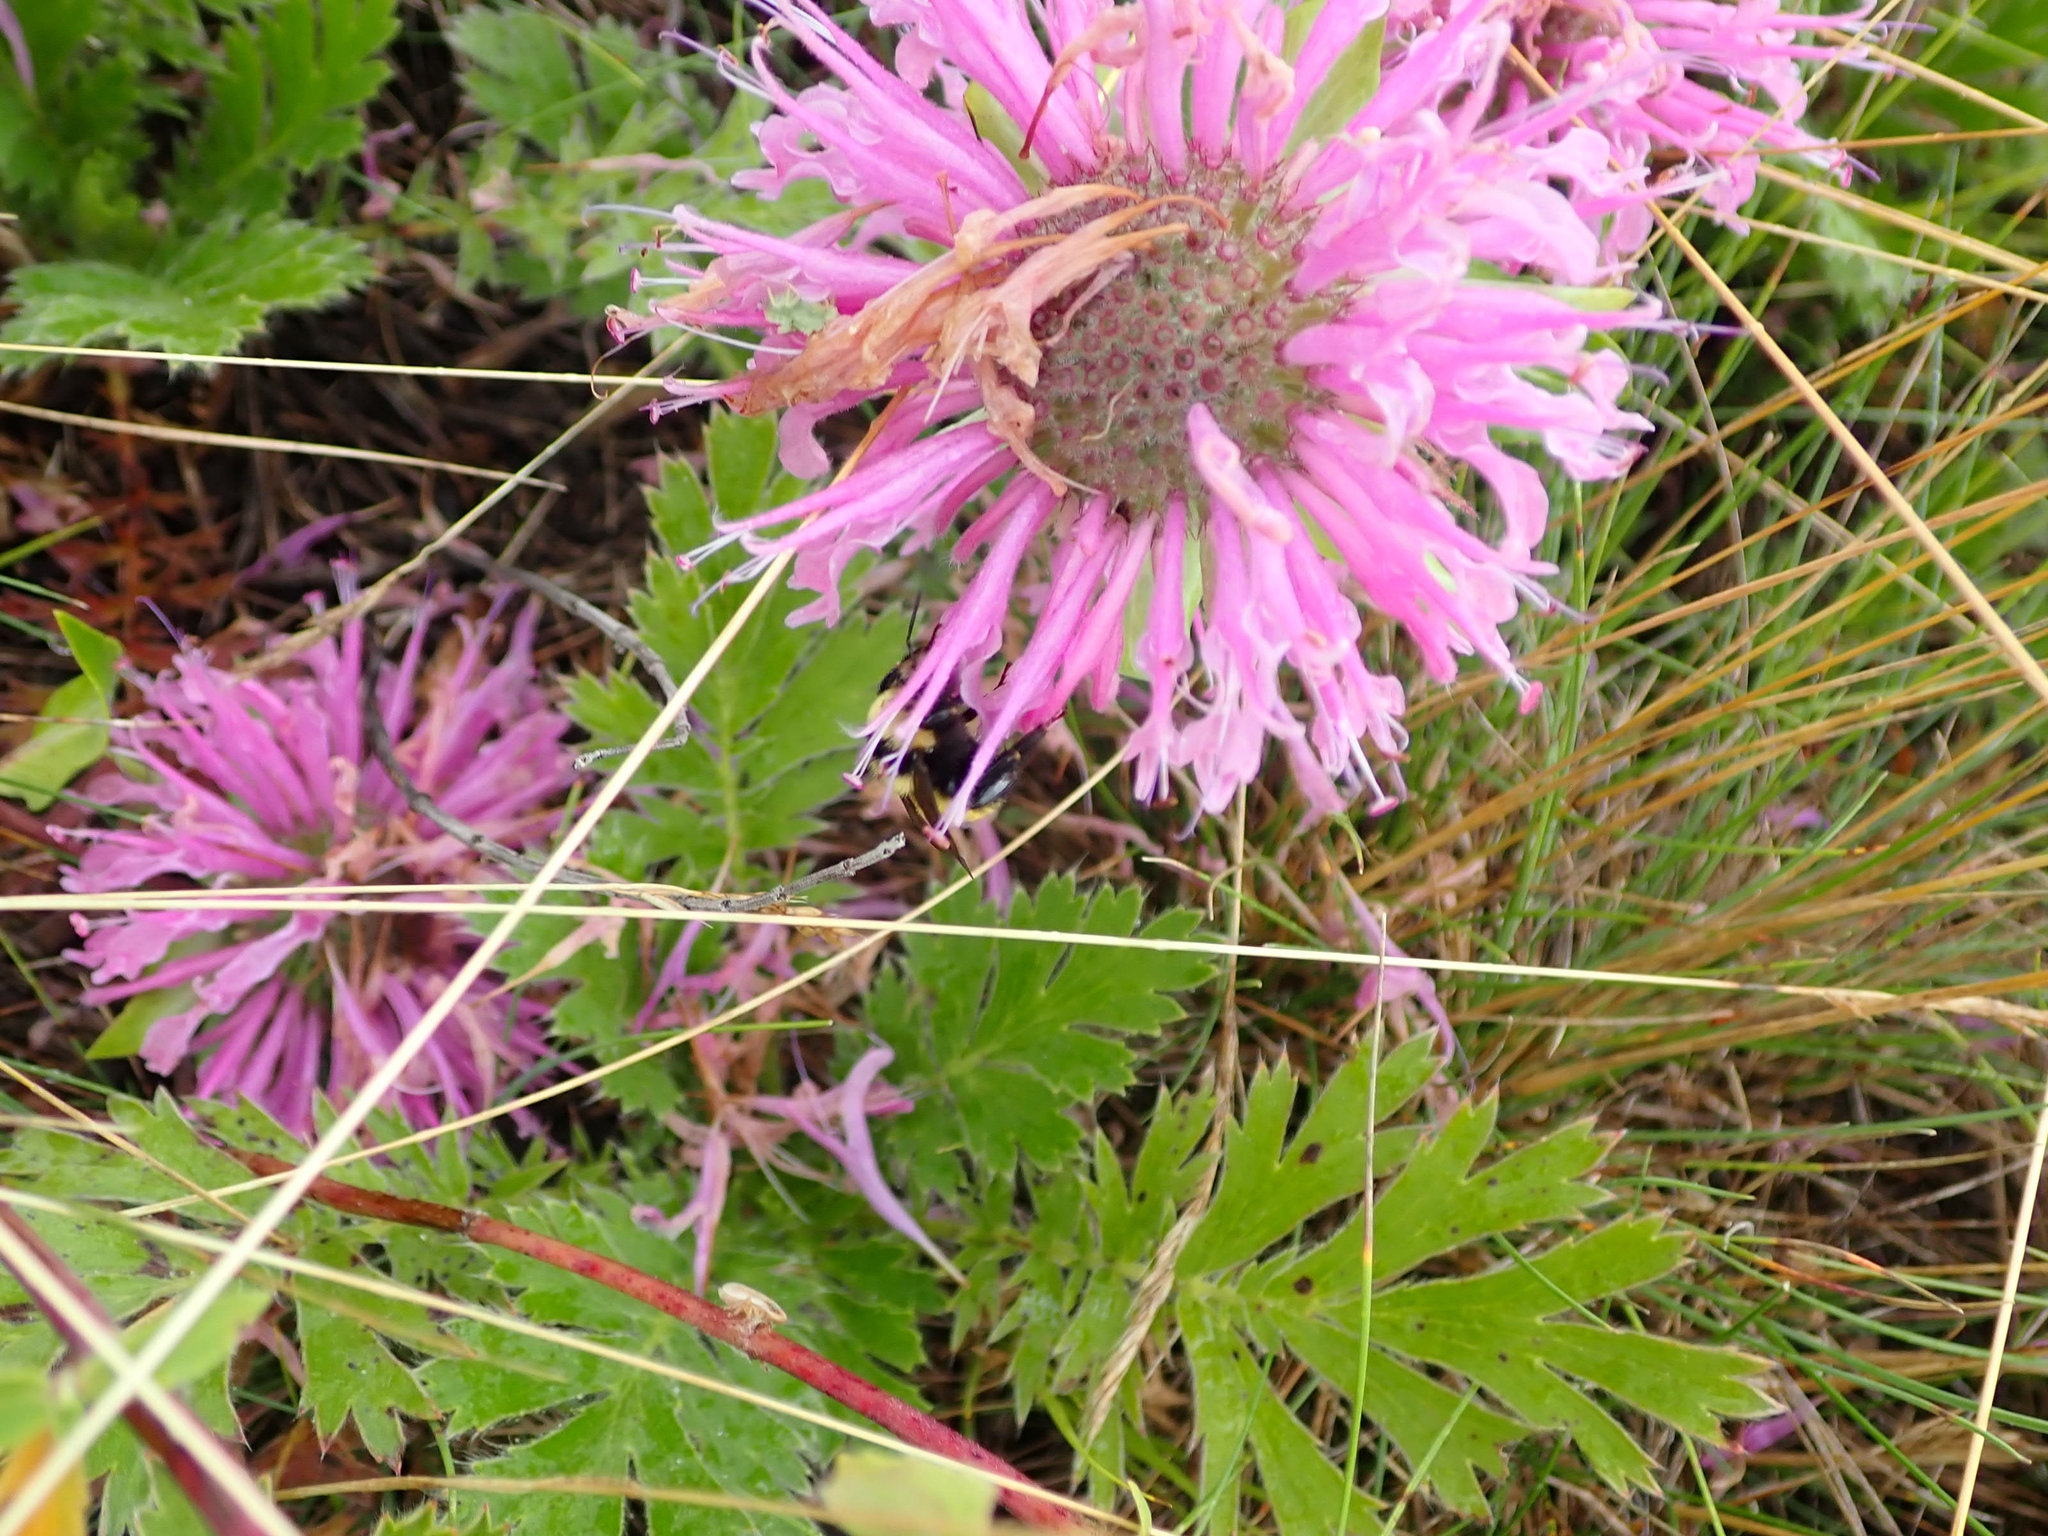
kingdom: Plantae
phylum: Tracheophyta
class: Magnoliopsida
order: Lamiales
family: Lamiaceae
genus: Monarda
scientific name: Monarda fistulosa
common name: Purple beebalm
